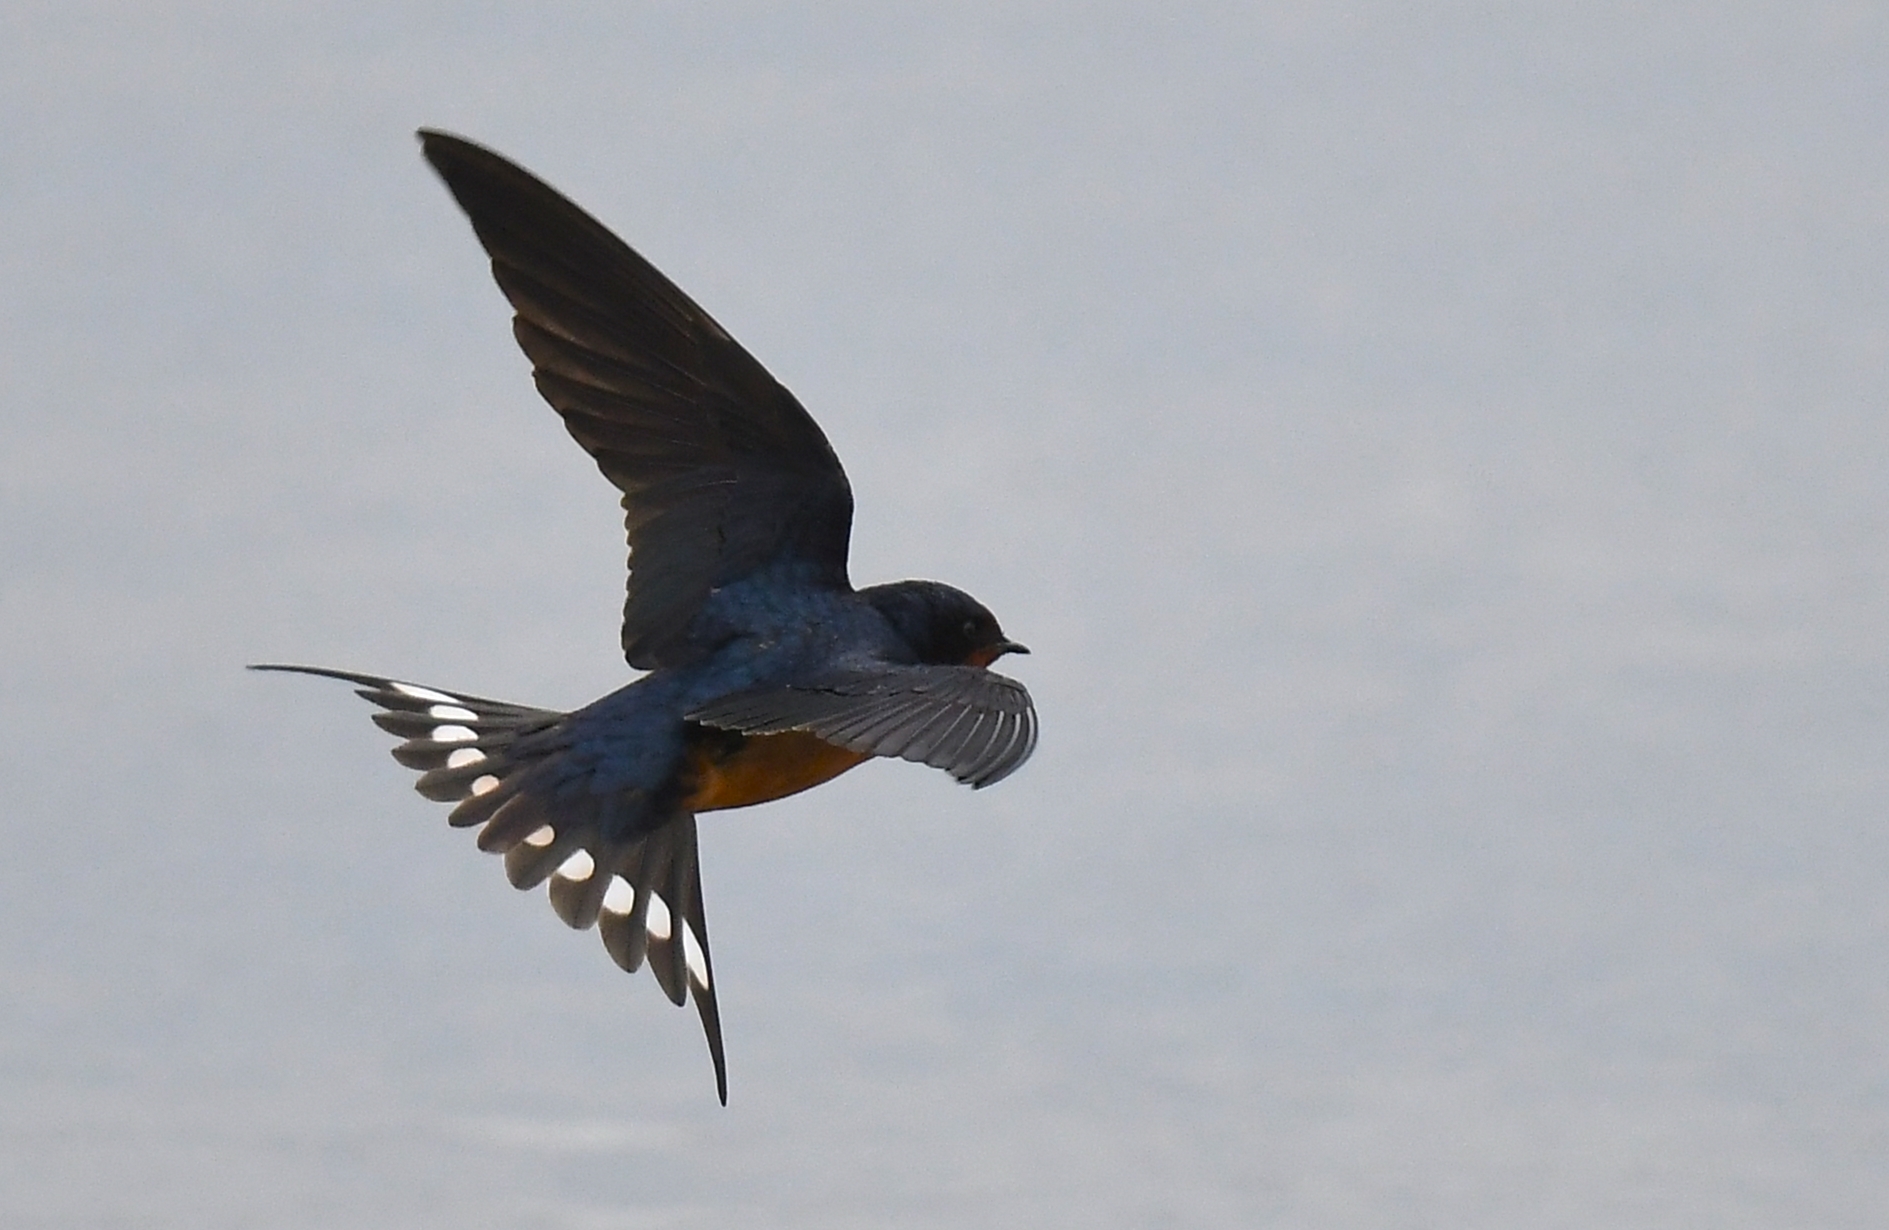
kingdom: Animalia
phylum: Chordata
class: Aves
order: Passeriformes
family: Hirundinidae
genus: Hirundo
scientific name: Hirundo rustica
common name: Barn swallow
